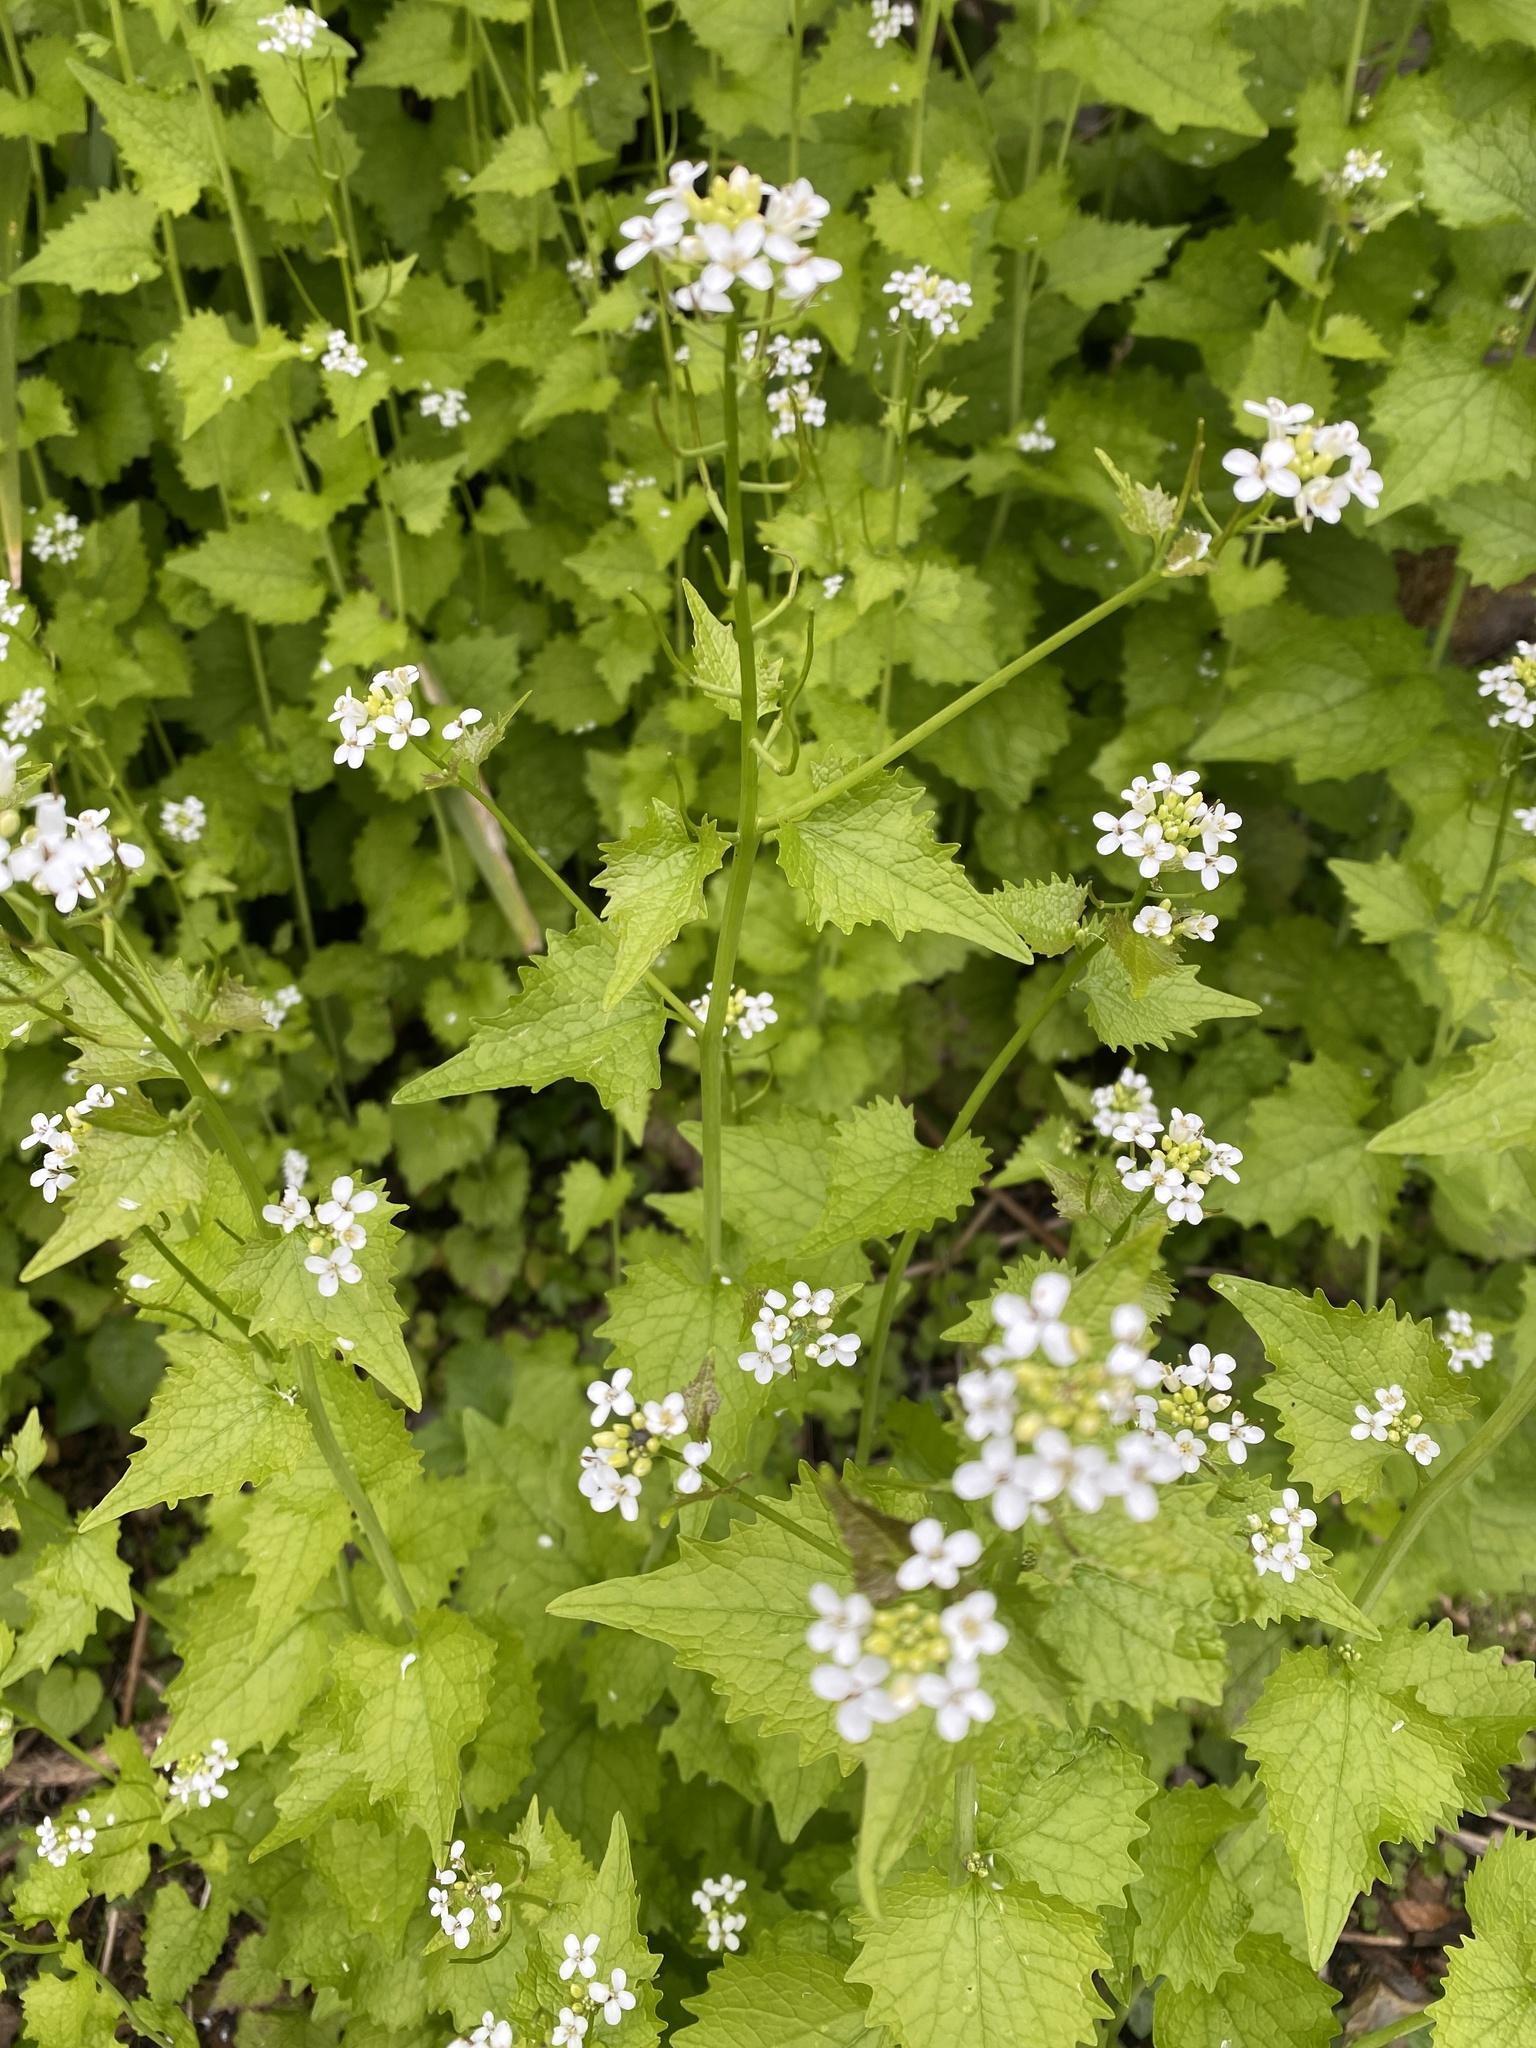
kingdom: Plantae
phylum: Tracheophyta
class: Magnoliopsida
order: Brassicales
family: Brassicaceae
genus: Alliaria
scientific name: Alliaria petiolata
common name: Garlic mustard
